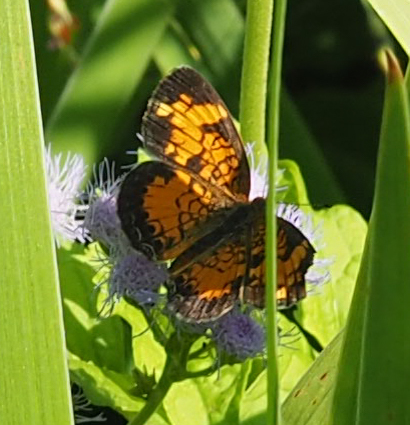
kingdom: Animalia
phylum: Arthropoda
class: Insecta
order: Lepidoptera
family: Nymphalidae
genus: Phyciodes
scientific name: Phyciodes tharos
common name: Pearl crescent
